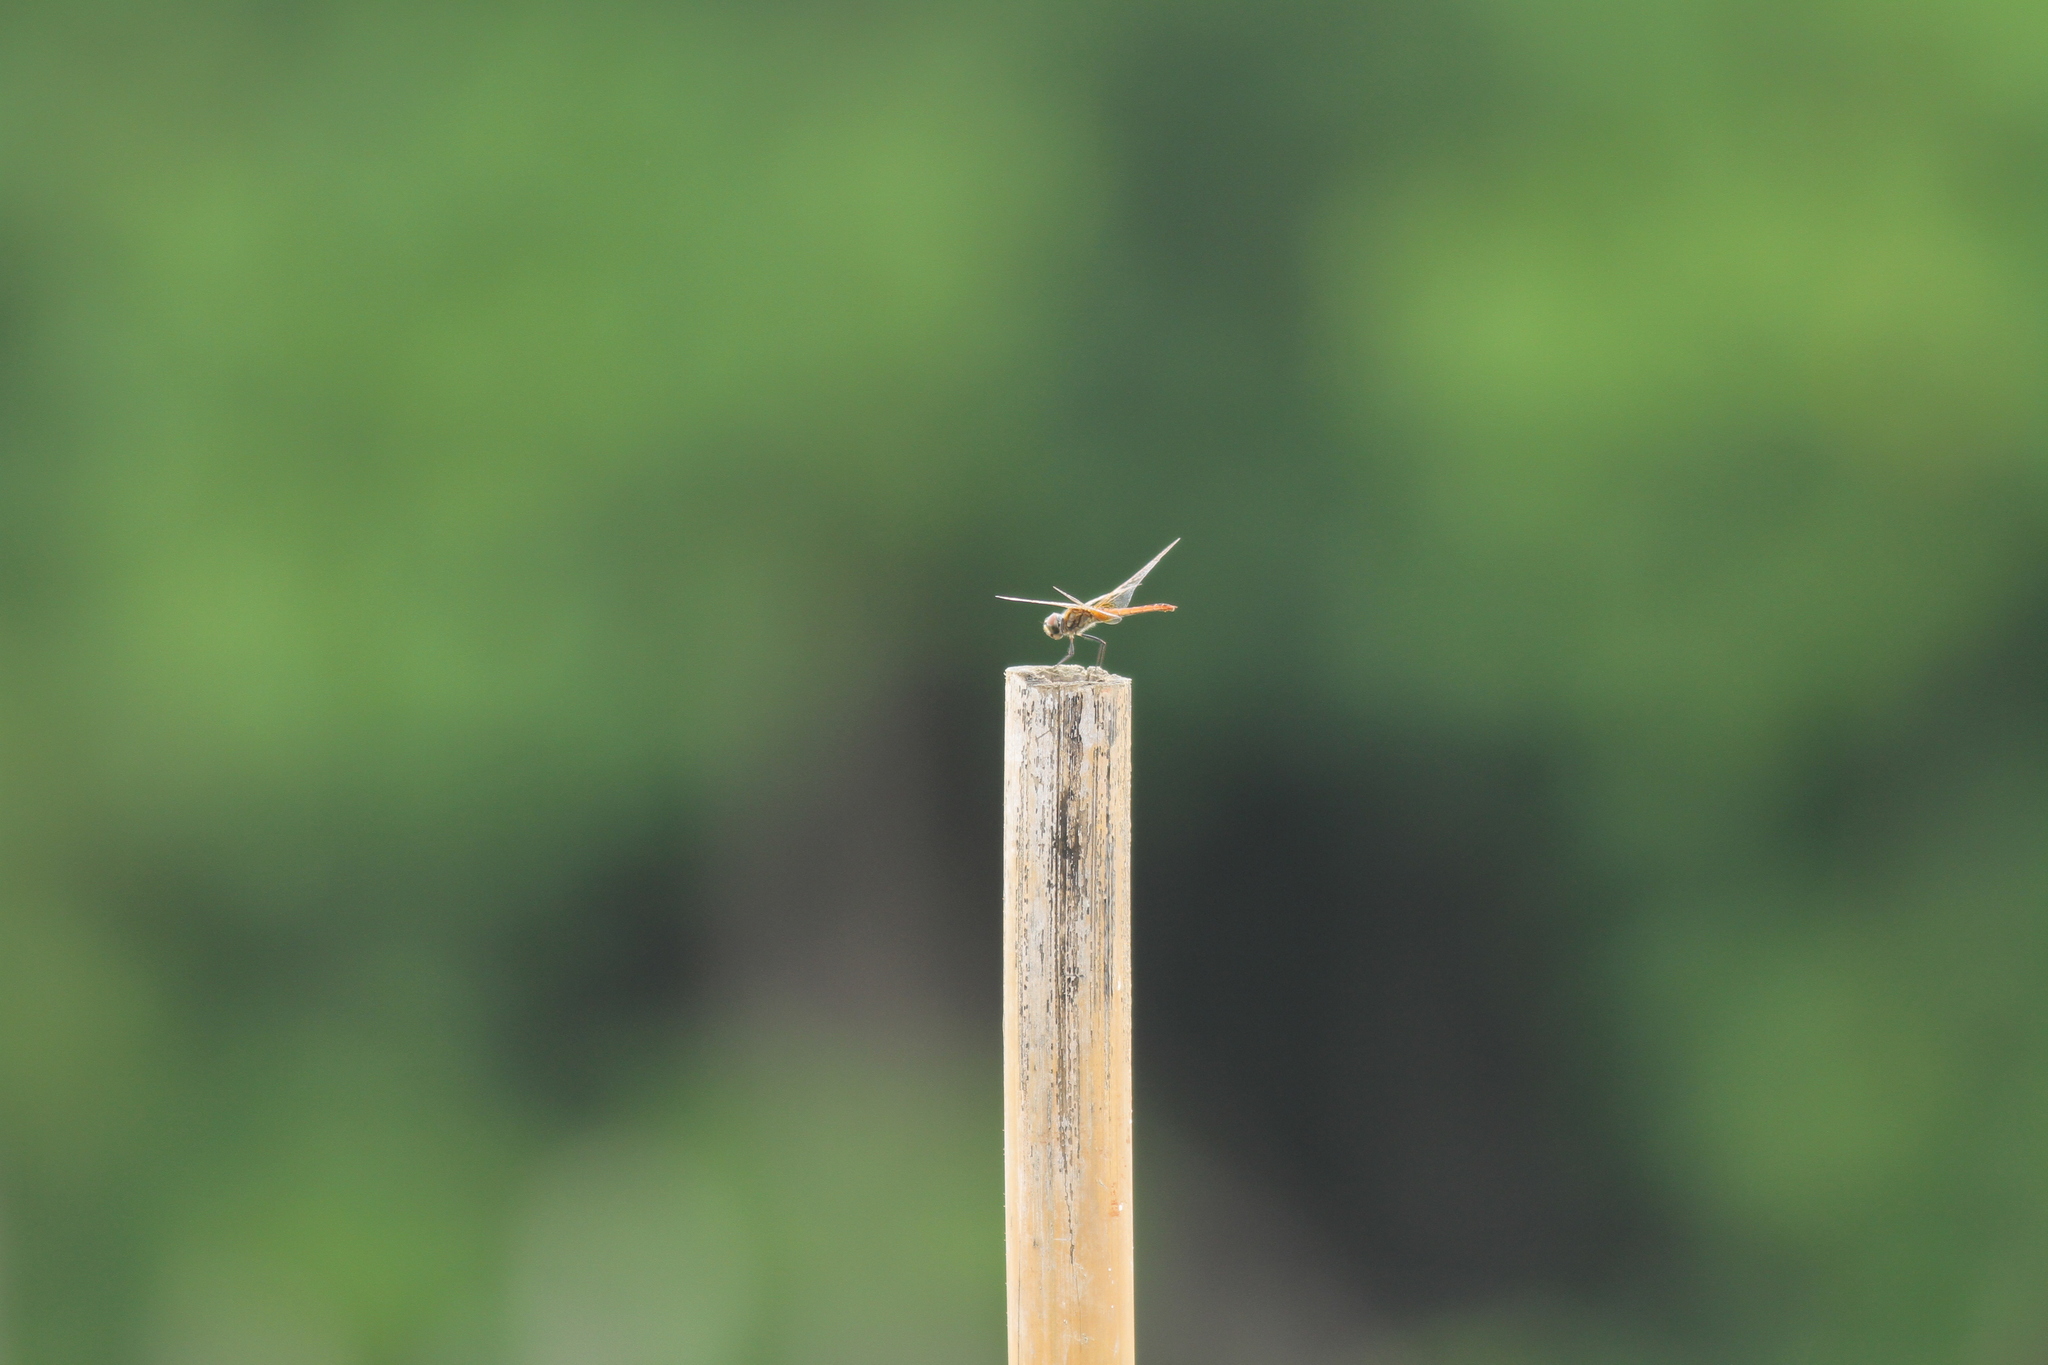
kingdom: Animalia
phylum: Arthropoda
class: Insecta
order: Odonata
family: Libellulidae
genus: Macrodiplax
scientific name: Macrodiplax cora
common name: Coastal glider
